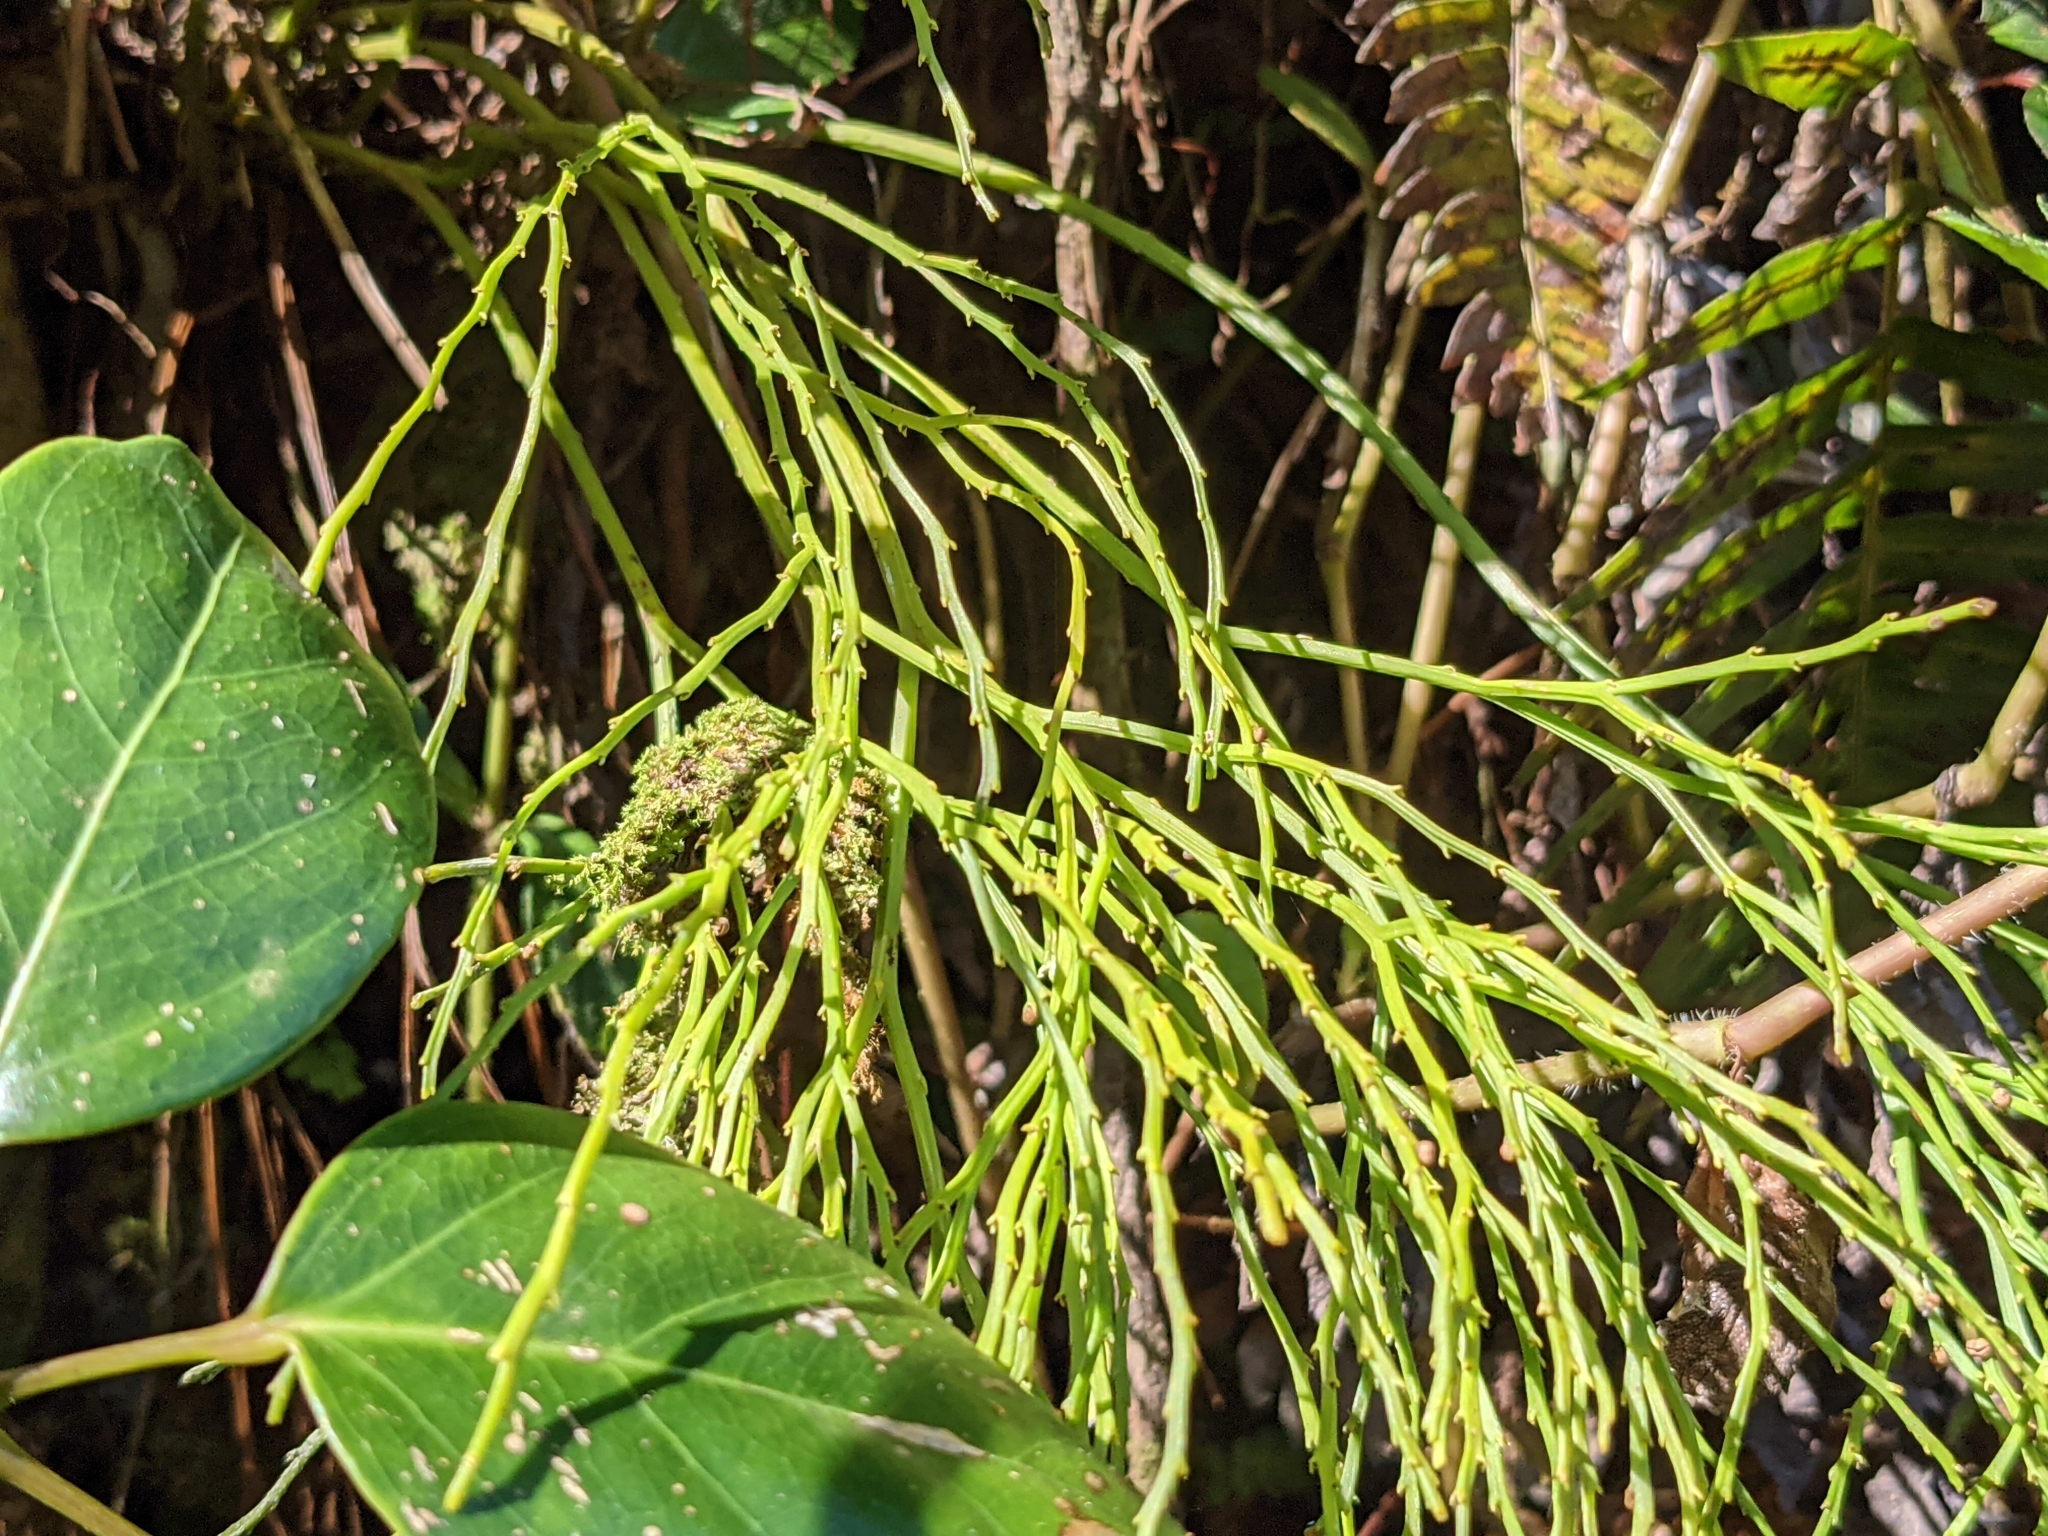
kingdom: Plantae
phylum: Tracheophyta
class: Polypodiopsida
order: Psilotales
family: Psilotaceae
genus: Psilotum
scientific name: Psilotum nudum
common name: Skeleton fork fern
